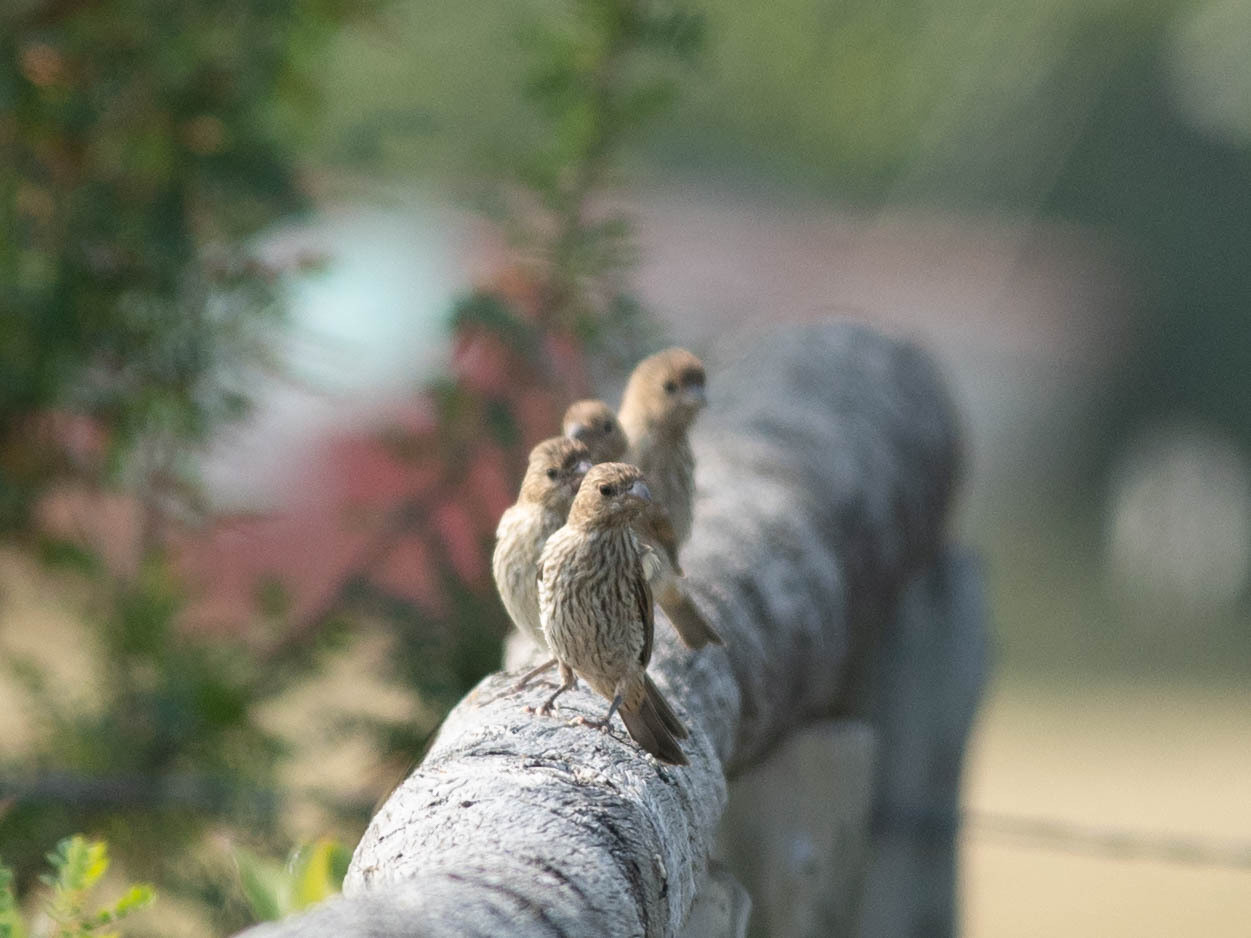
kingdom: Animalia
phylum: Chordata
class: Aves
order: Passeriformes
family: Fringillidae
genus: Haemorhous
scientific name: Haemorhous mexicanus
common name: House finch
